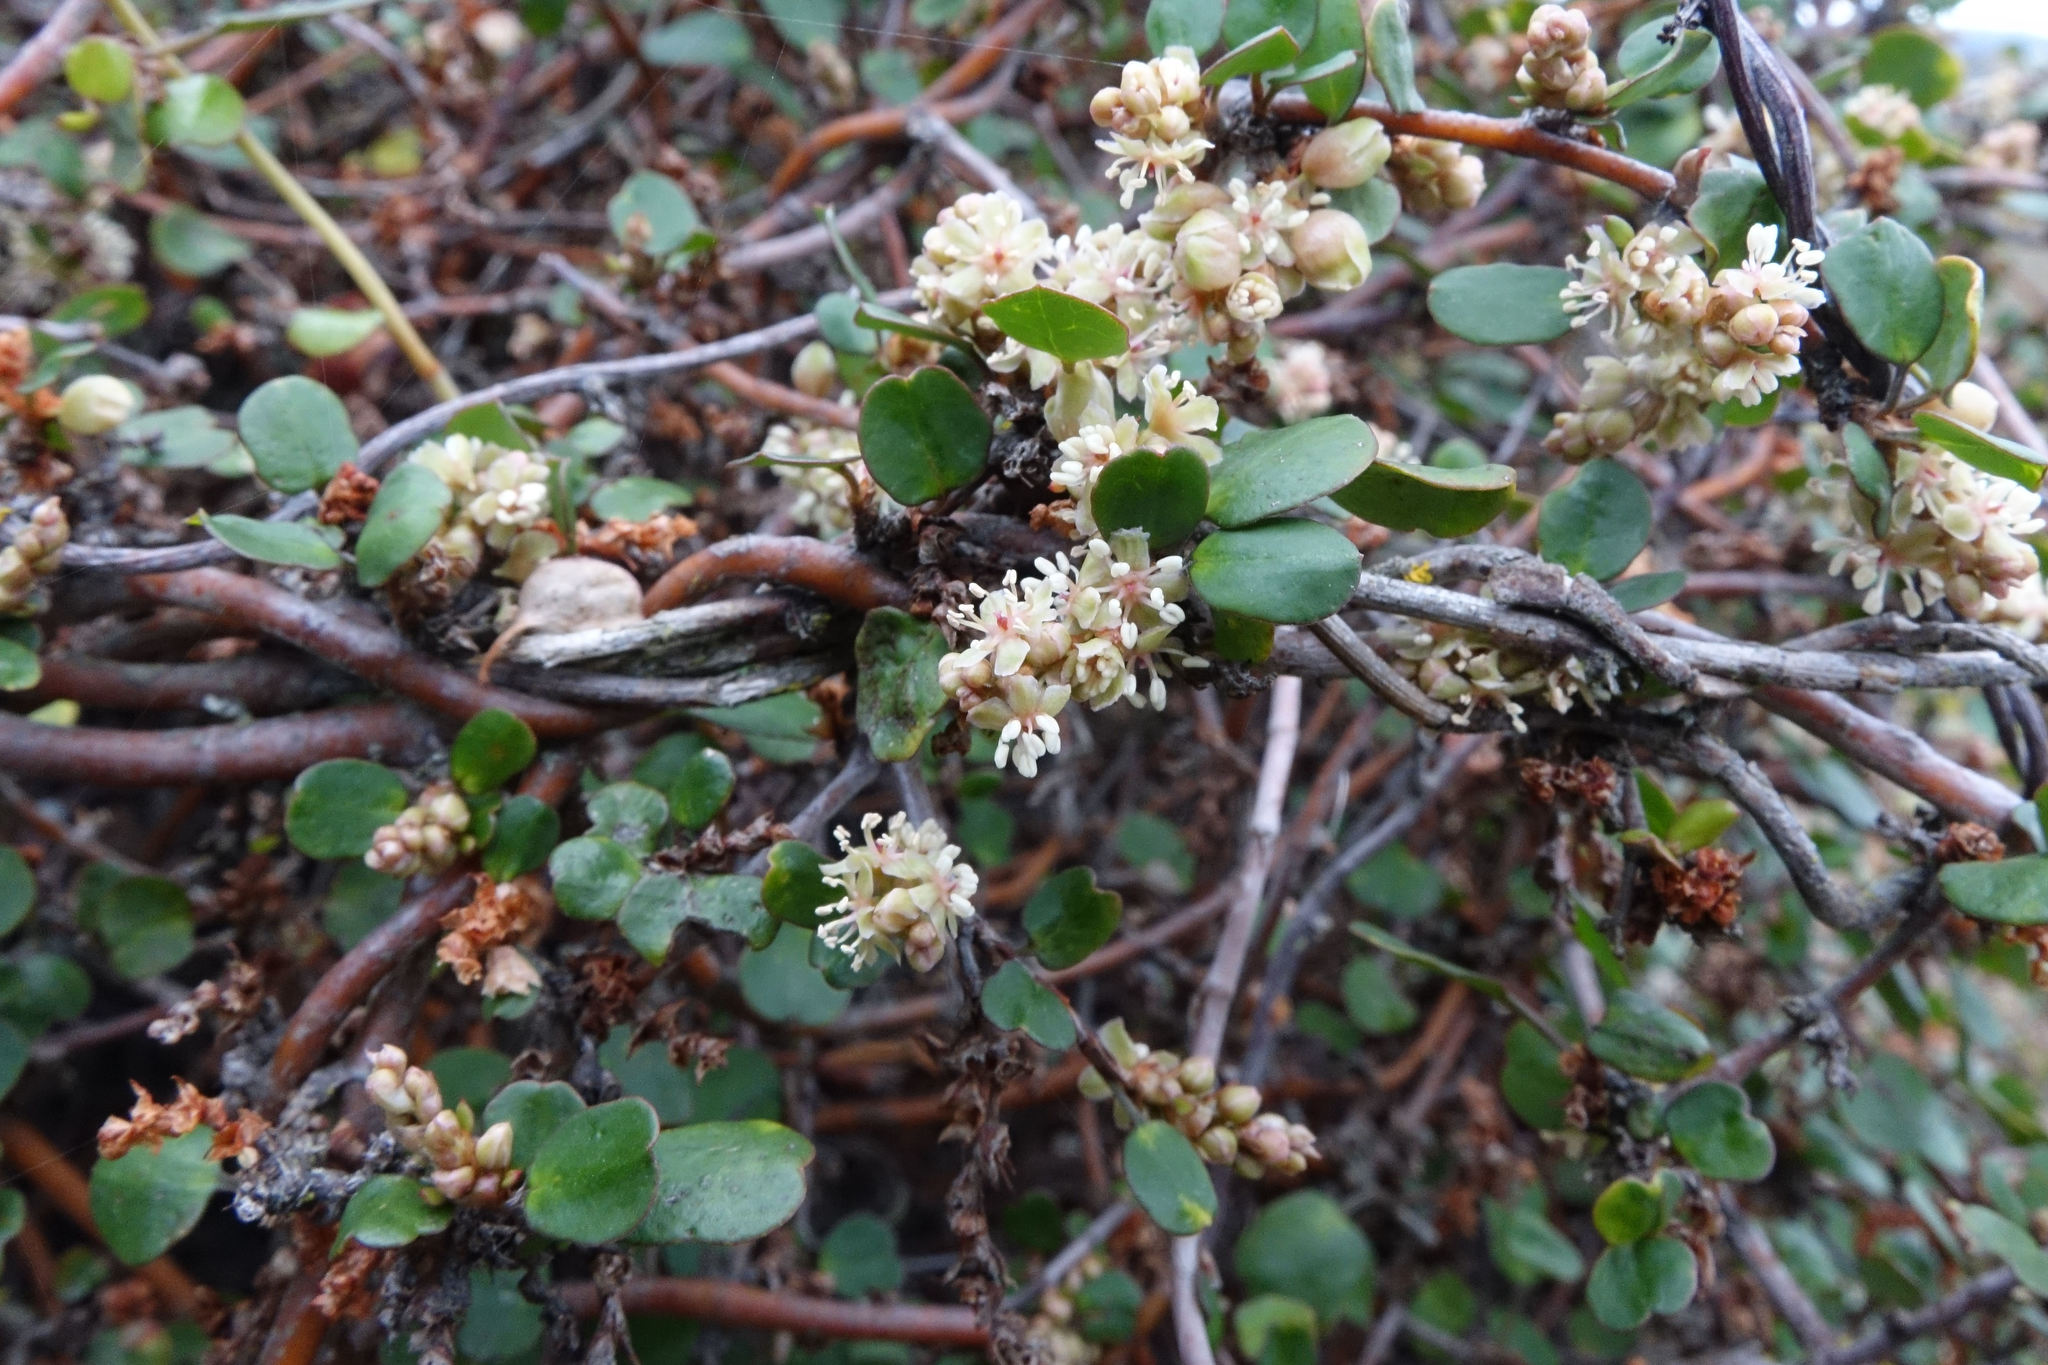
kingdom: Plantae
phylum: Tracheophyta
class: Magnoliopsida
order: Caryophyllales
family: Polygonaceae
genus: Muehlenbeckia
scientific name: Muehlenbeckia complexa
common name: Wireplant
